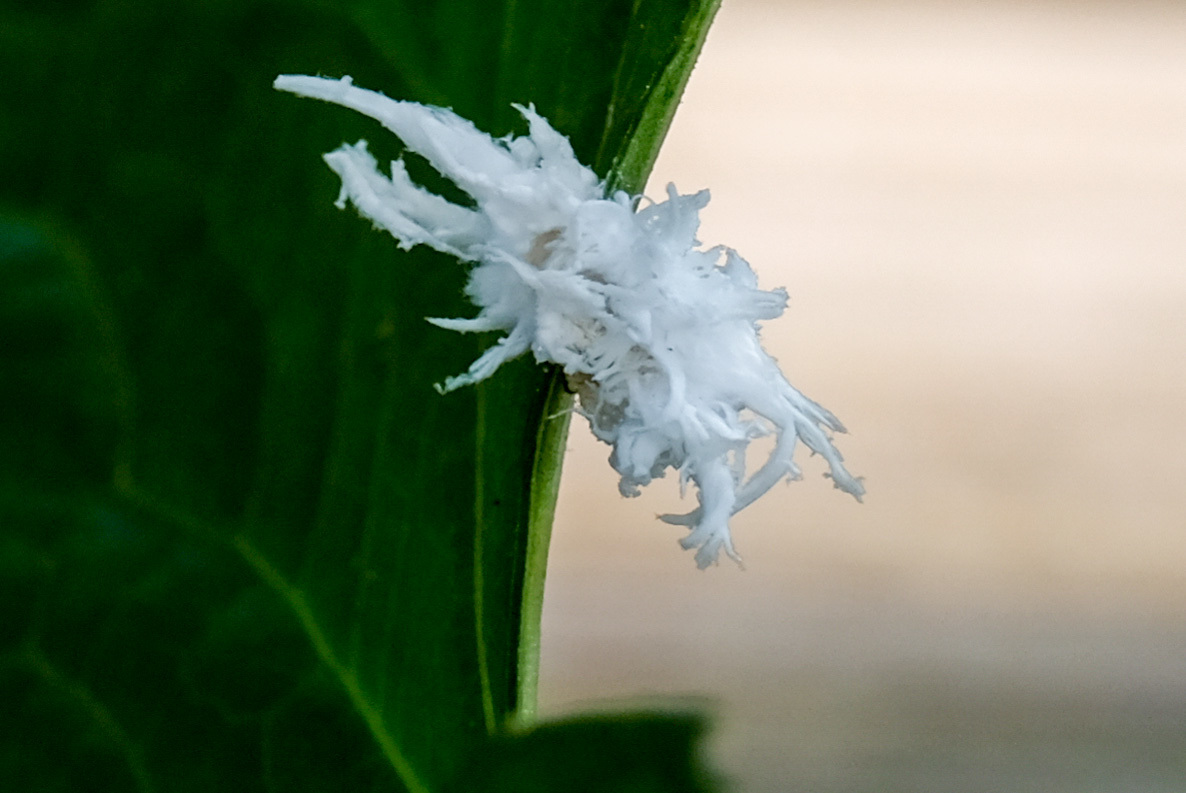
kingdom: Animalia
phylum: Arthropoda
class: Insecta
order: Hymenoptera
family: Tenthredinidae
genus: Eriocampa
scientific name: Eriocampa juglandis
